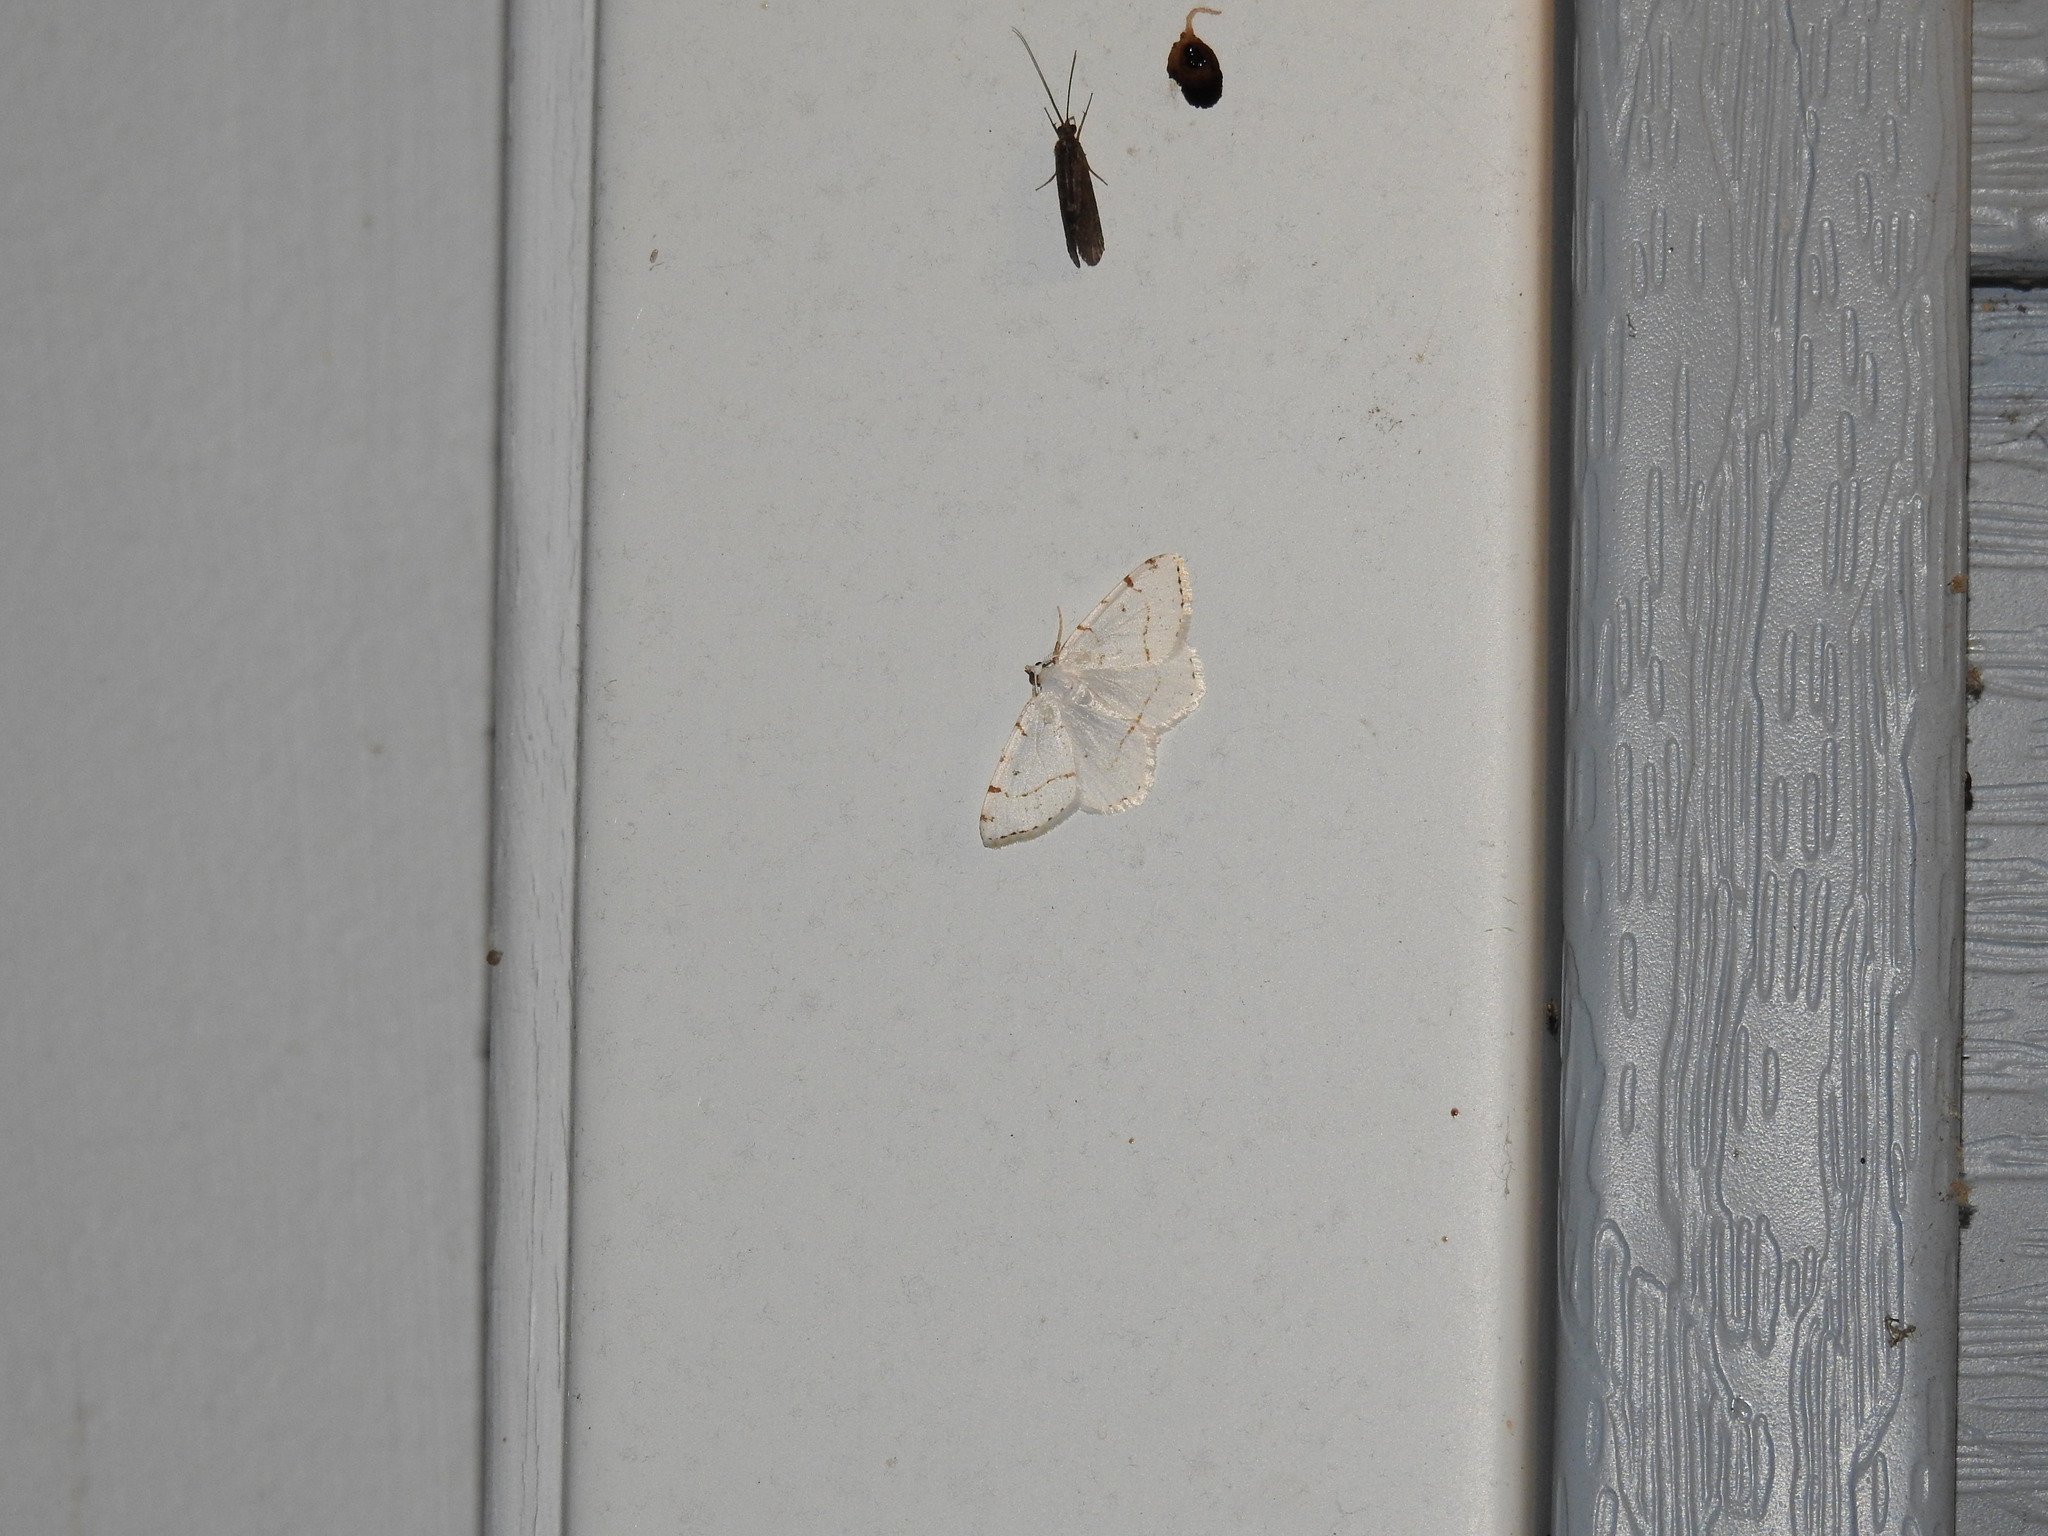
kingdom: Animalia
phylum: Arthropoda
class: Insecta
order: Lepidoptera
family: Geometridae
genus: Macaria
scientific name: Macaria pustularia
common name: Lesser maple spanworm moth
